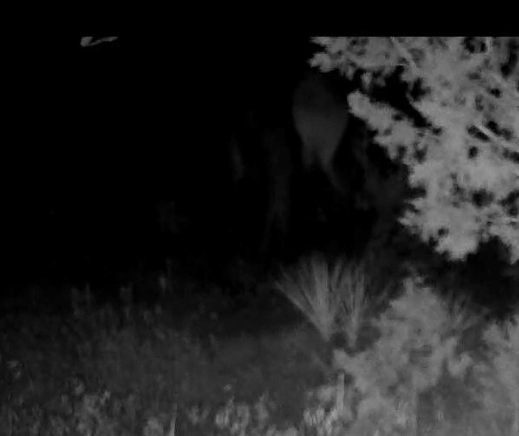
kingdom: Animalia
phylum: Chordata
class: Mammalia
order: Artiodactyla
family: Cervidae
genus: Cervus
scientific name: Cervus elaphus
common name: Red deer
